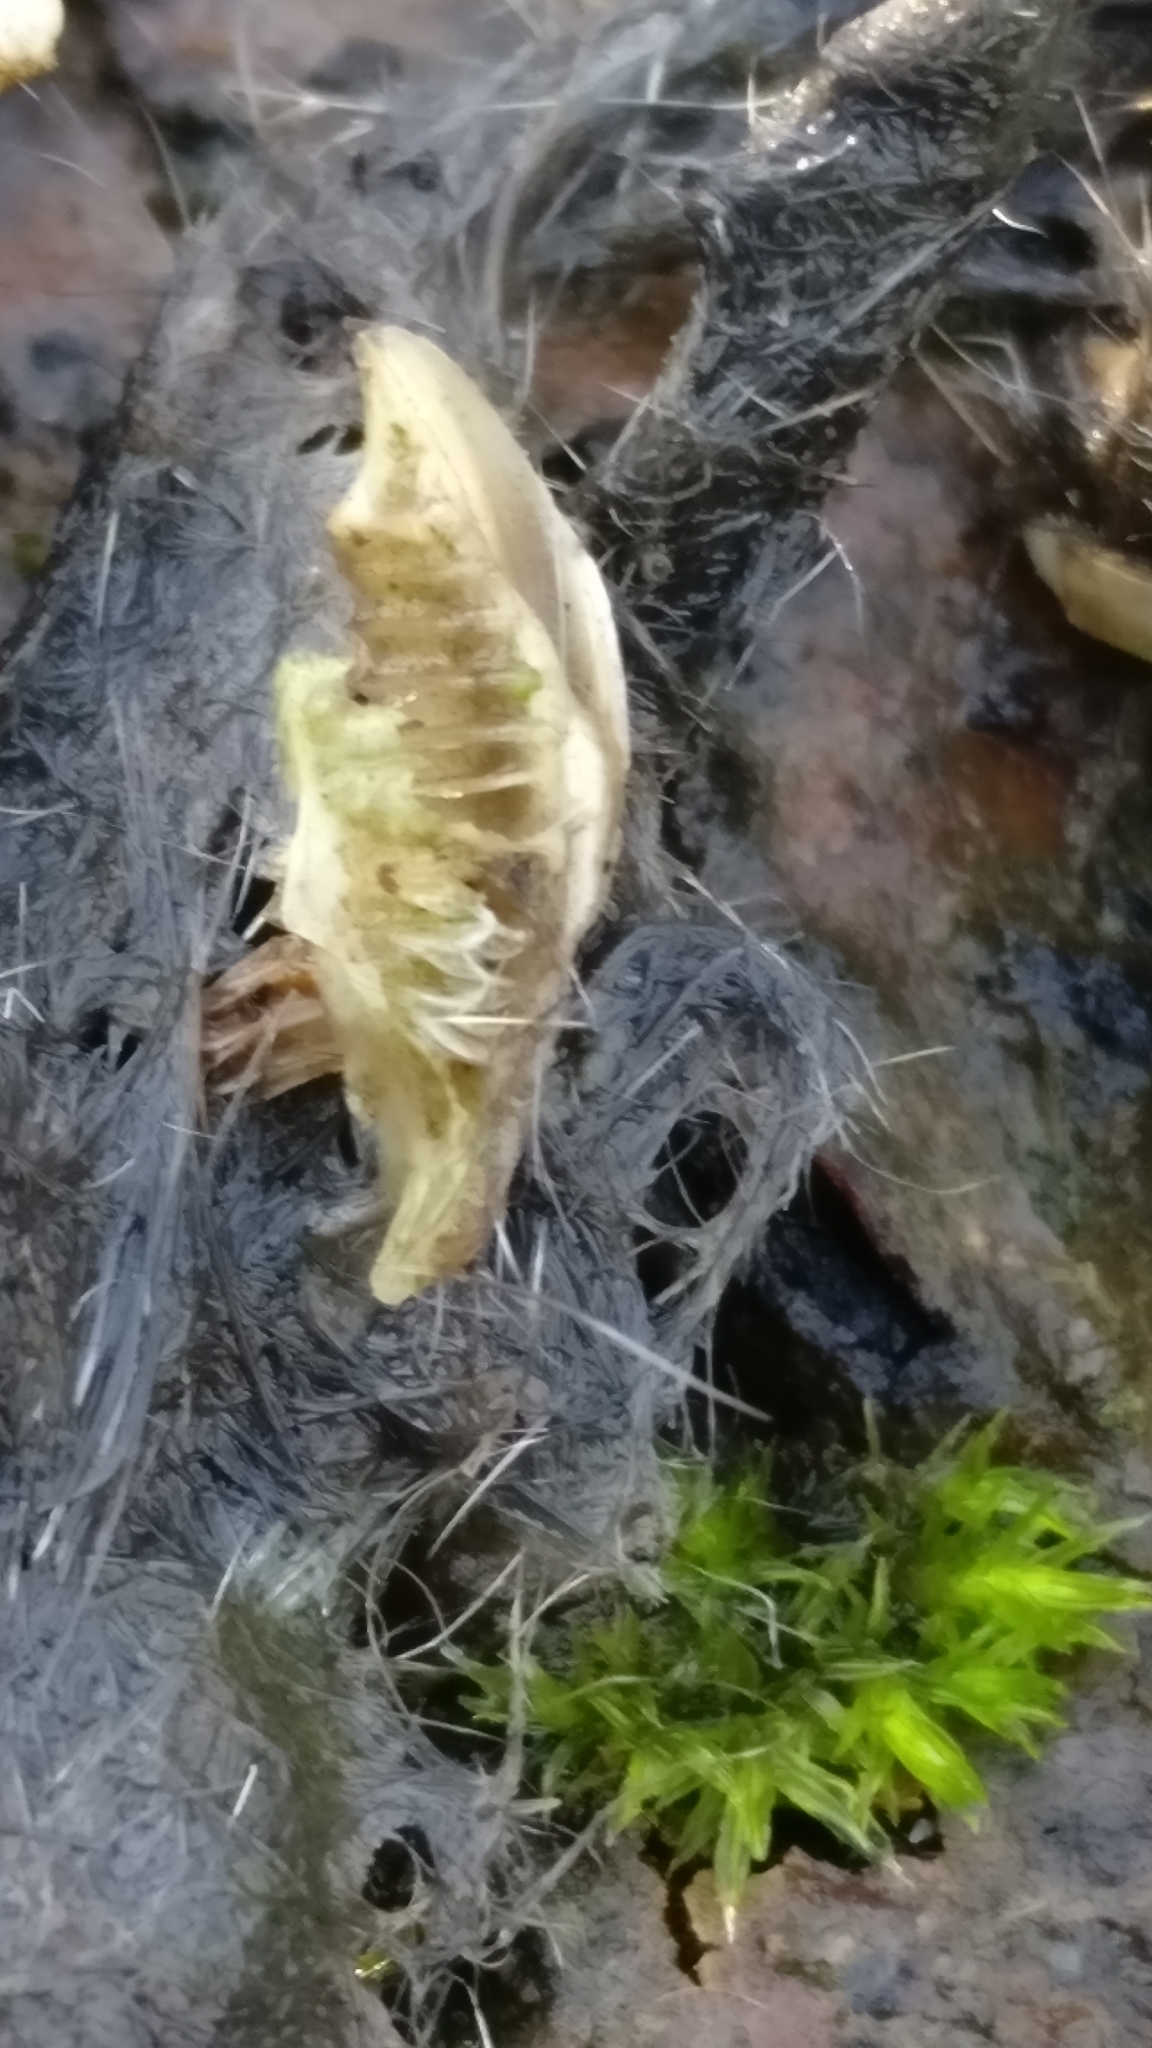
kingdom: Animalia
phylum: Chordata
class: Aves
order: Strigiformes
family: Strigidae
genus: Strix
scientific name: Strix aluco
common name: Tawny owl
